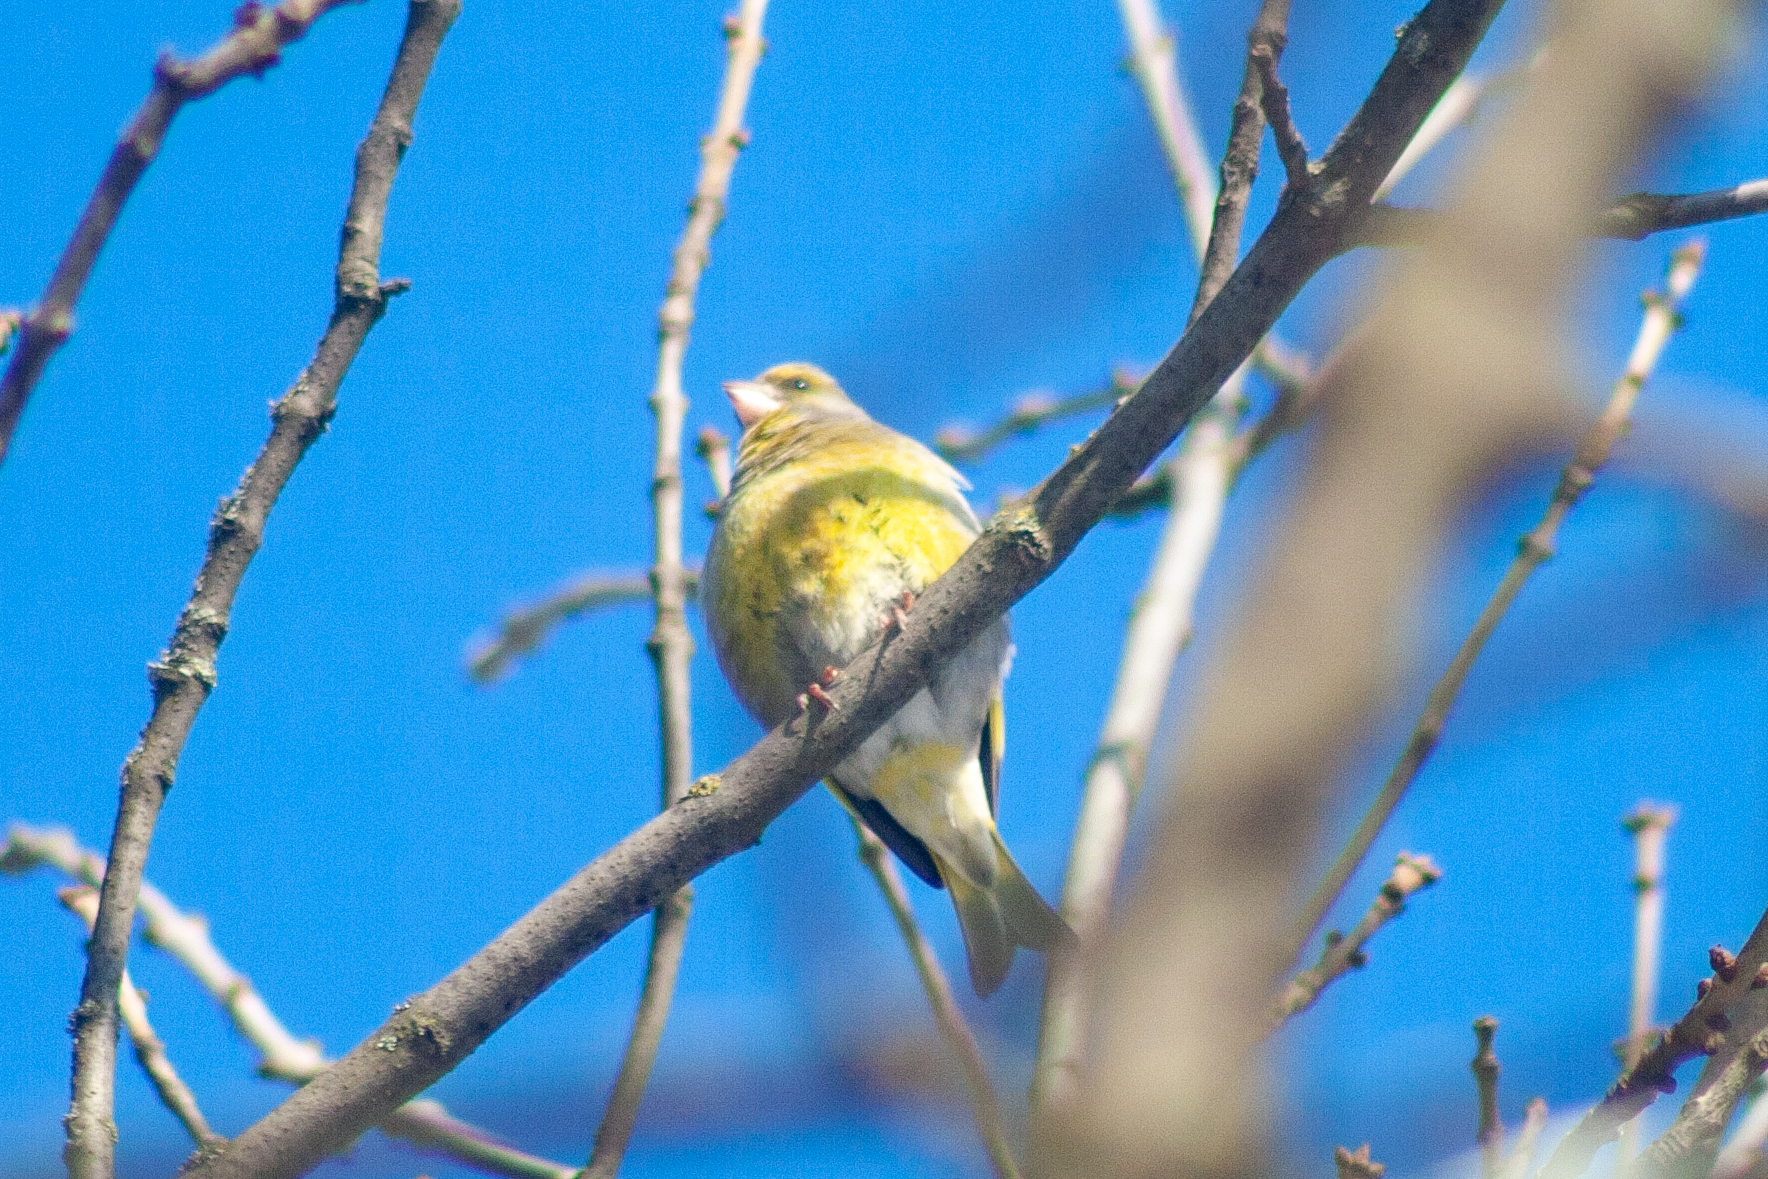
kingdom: Plantae
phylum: Tracheophyta
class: Liliopsida
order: Poales
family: Poaceae
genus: Chloris
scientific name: Chloris chloris
